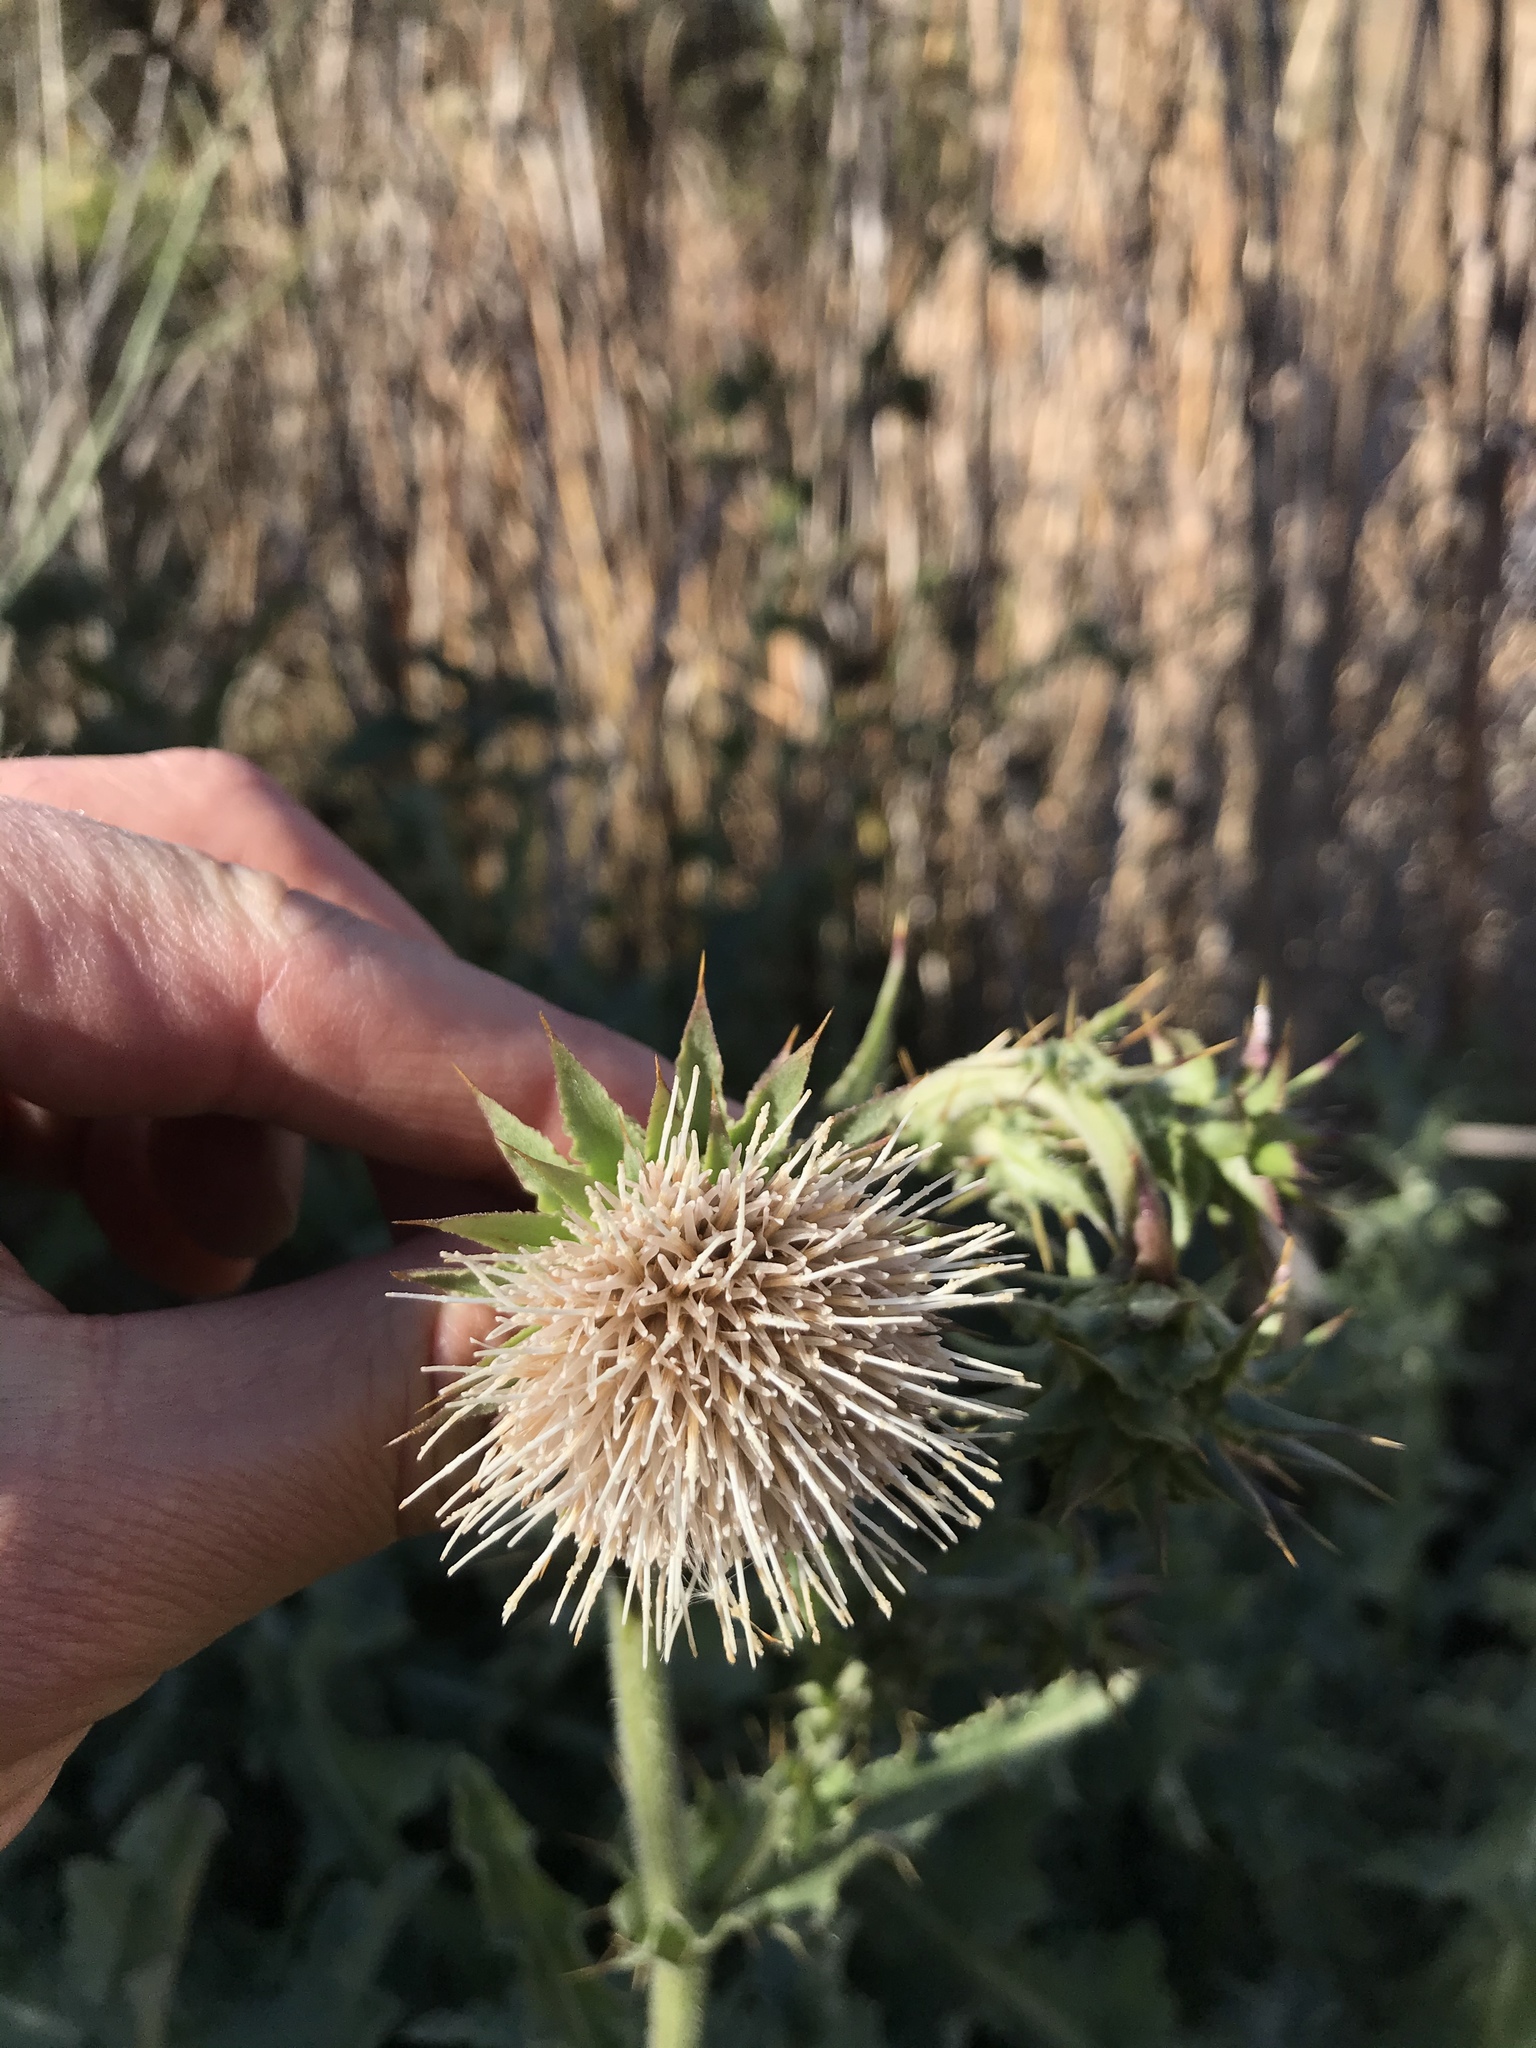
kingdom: Plantae
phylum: Tracheophyta
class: Magnoliopsida
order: Asterales
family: Asteraceae
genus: Cirsium
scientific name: Cirsium fontinale
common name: Fountain thistle
